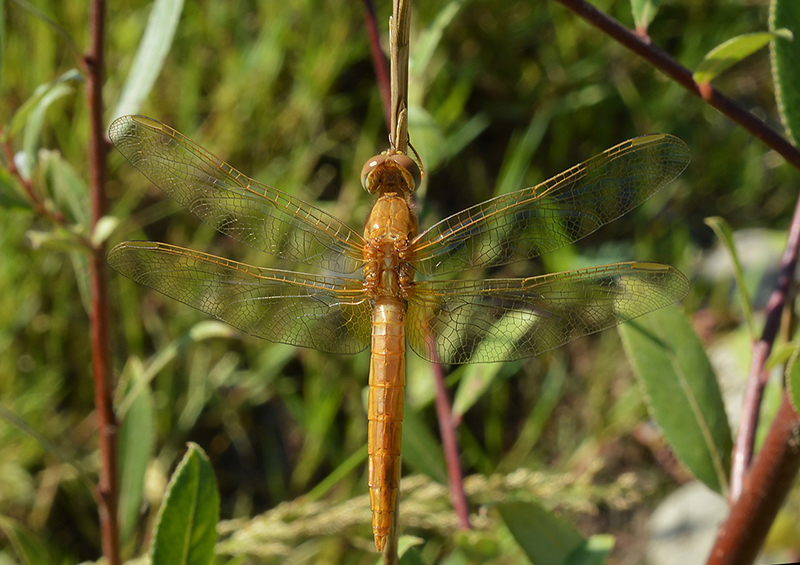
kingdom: Animalia
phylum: Arthropoda
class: Insecta
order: Odonata
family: Libellulidae
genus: Crocothemis
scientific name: Crocothemis erythraea
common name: Scarlet dragonfly
